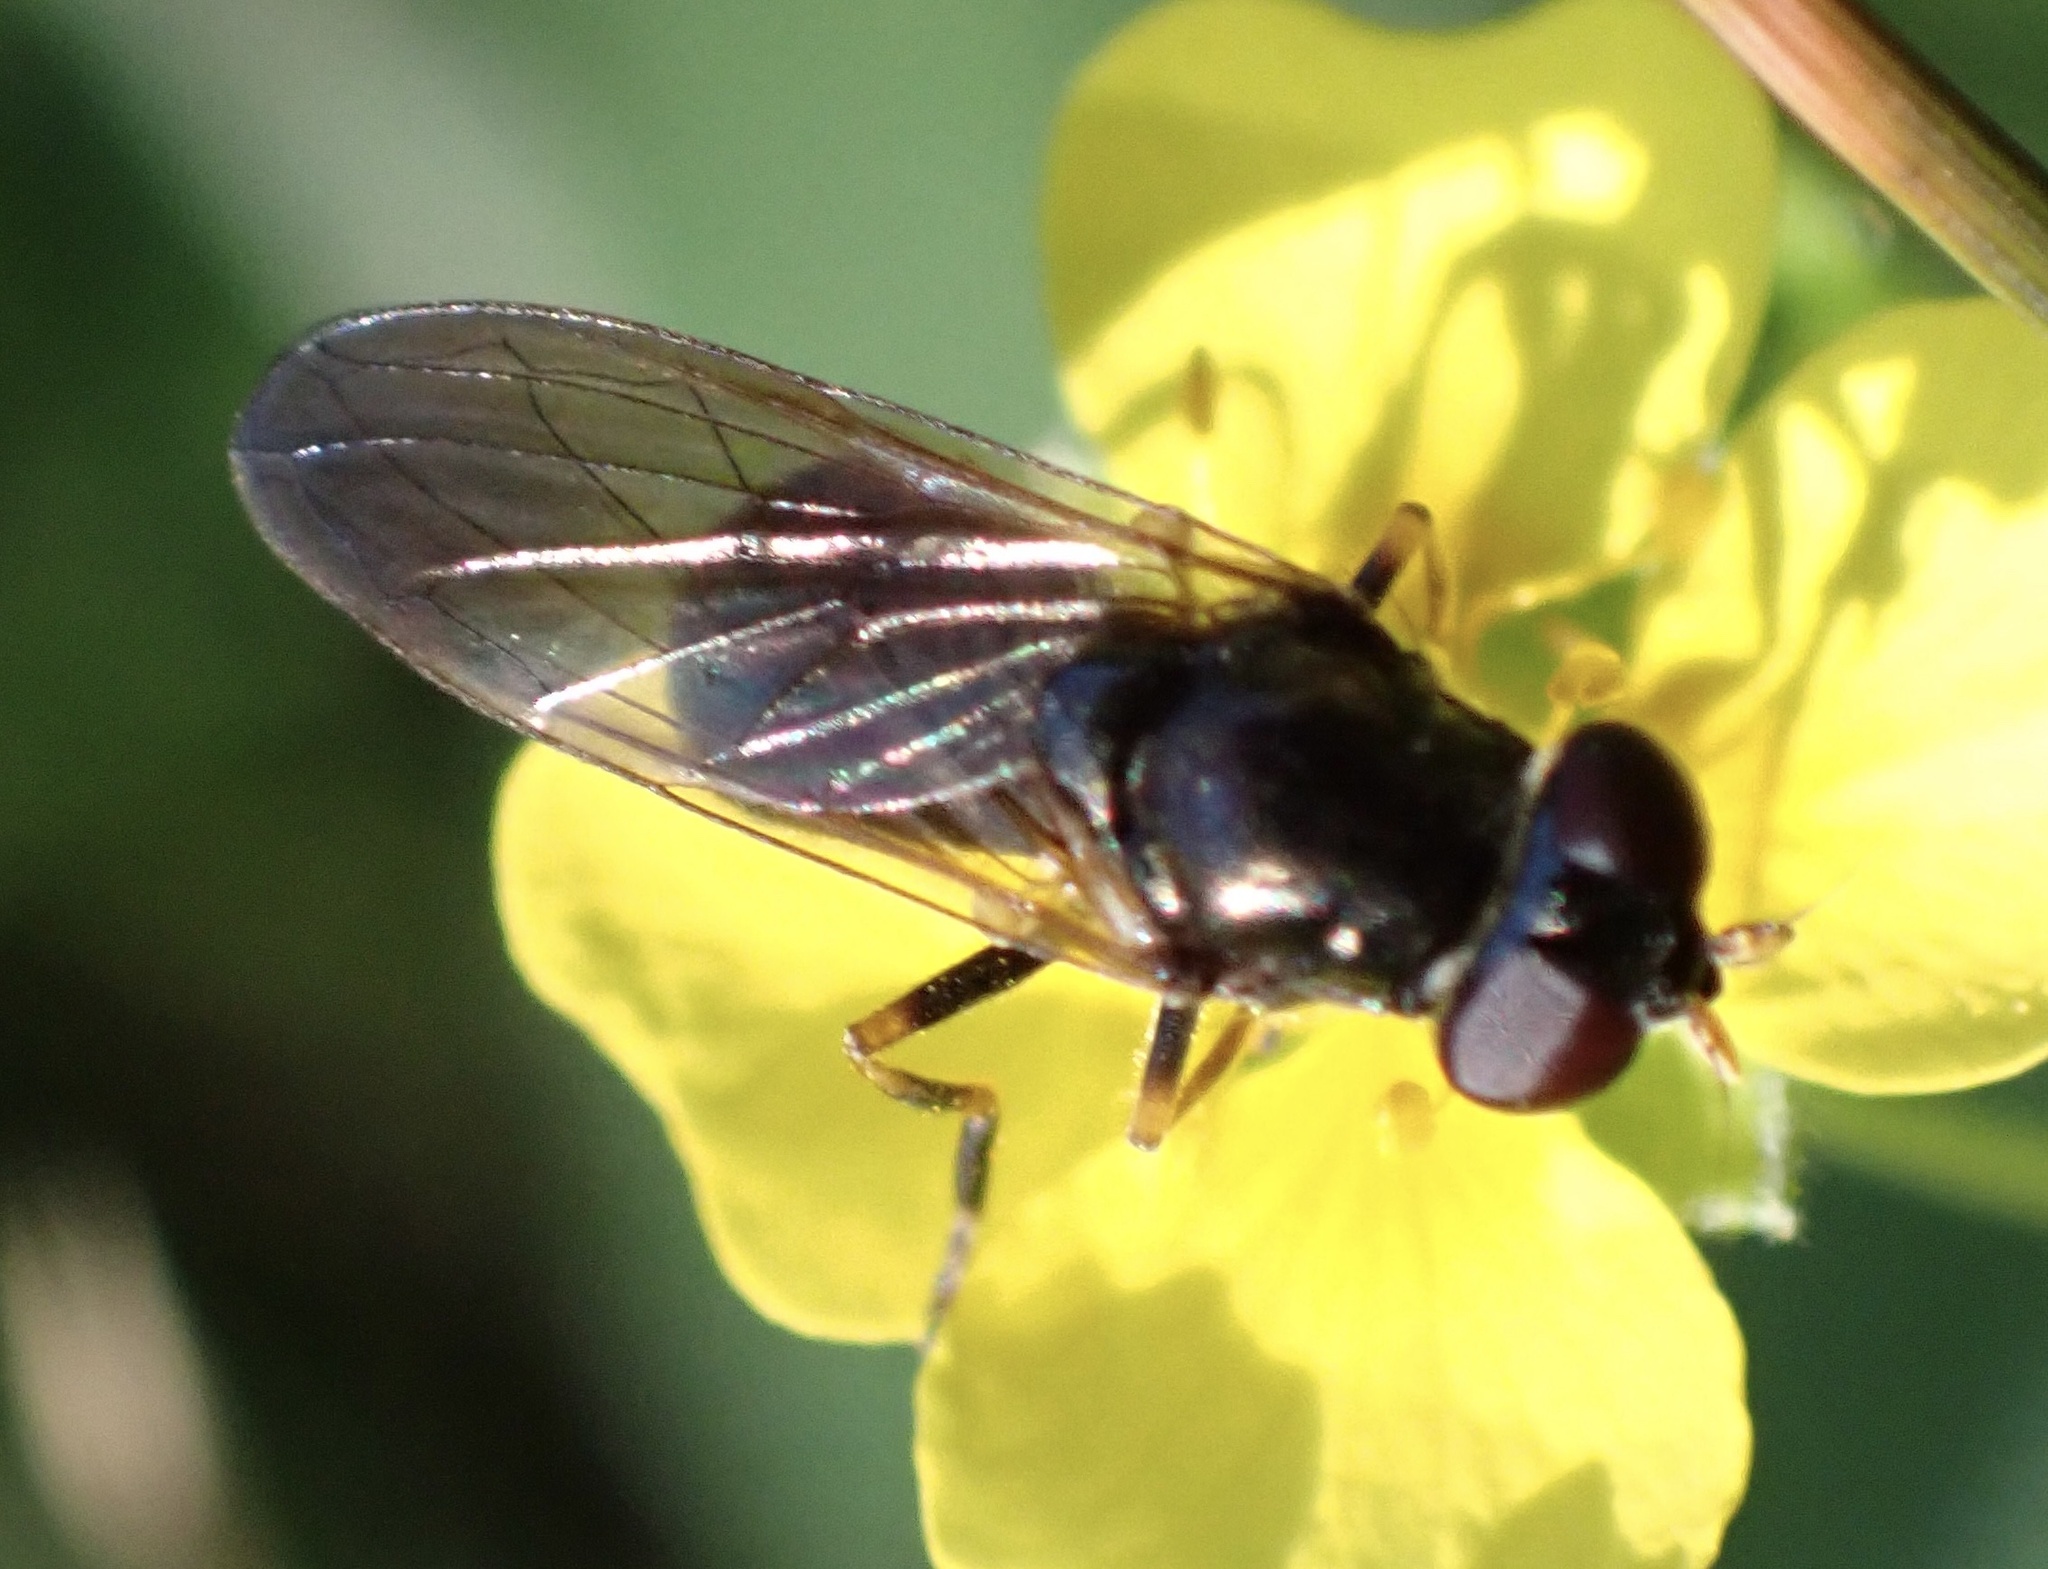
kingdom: Animalia
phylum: Arthropoda
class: Insecta
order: Diptera
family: Syrphidae
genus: Cheilosia
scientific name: Cheilosia pagana
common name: Hover fly
